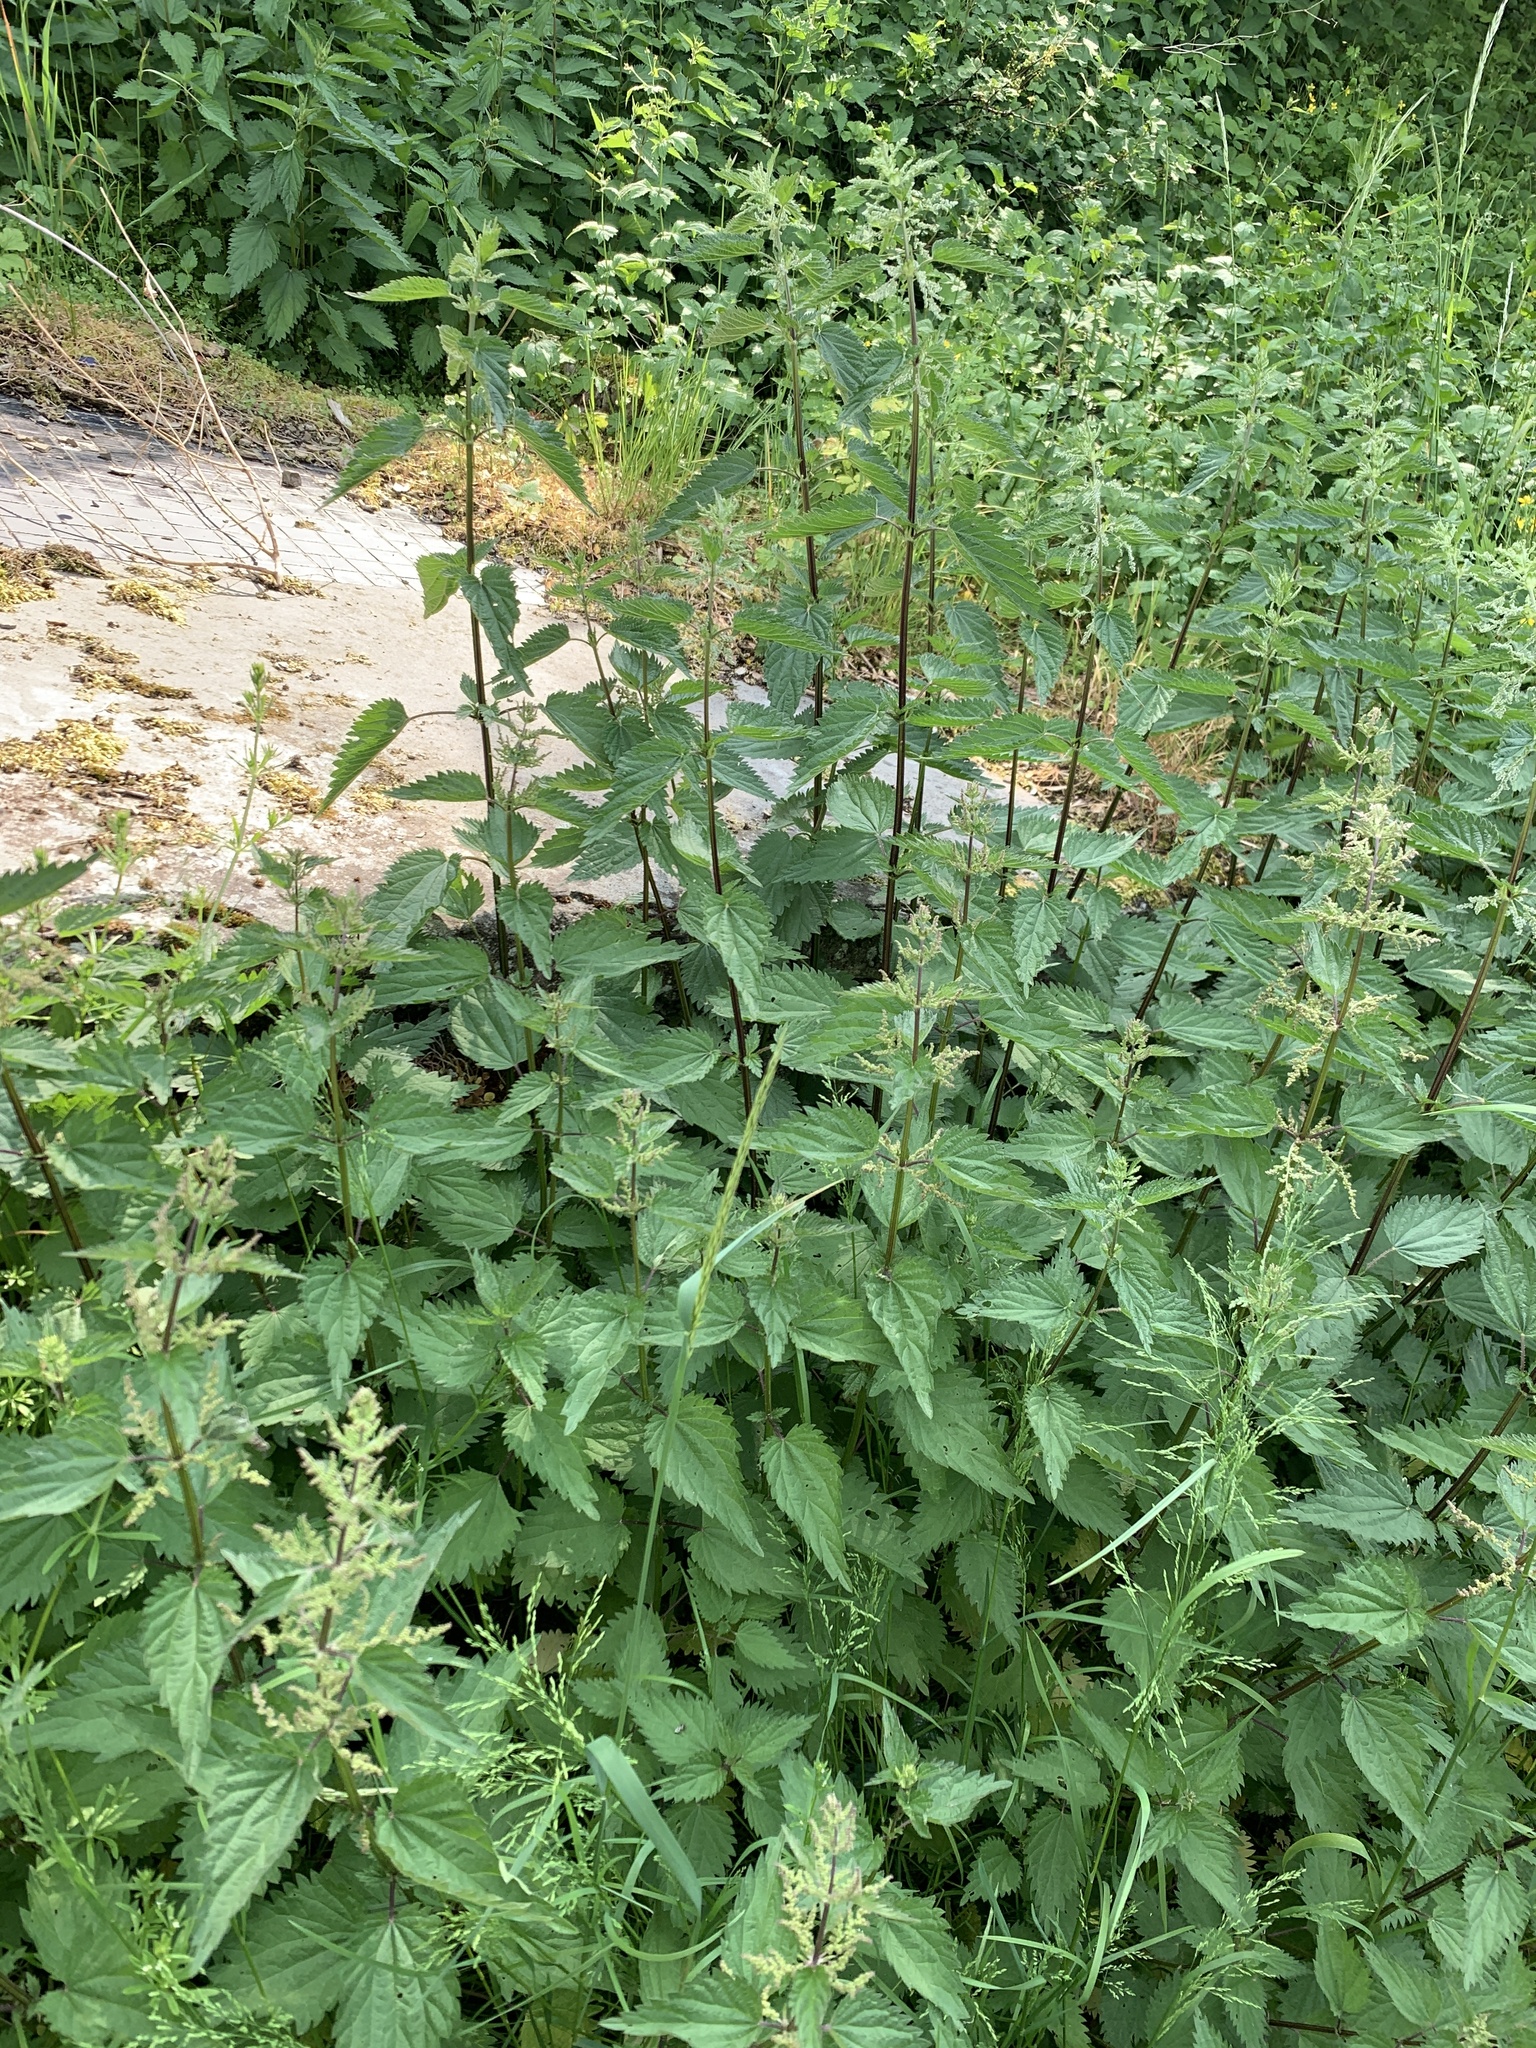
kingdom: Plantae
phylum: Tracheophyta
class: Magnoliopsida
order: Rosales
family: Urticaceae
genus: Urtica
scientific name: Urtica dioica
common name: Common nettle
